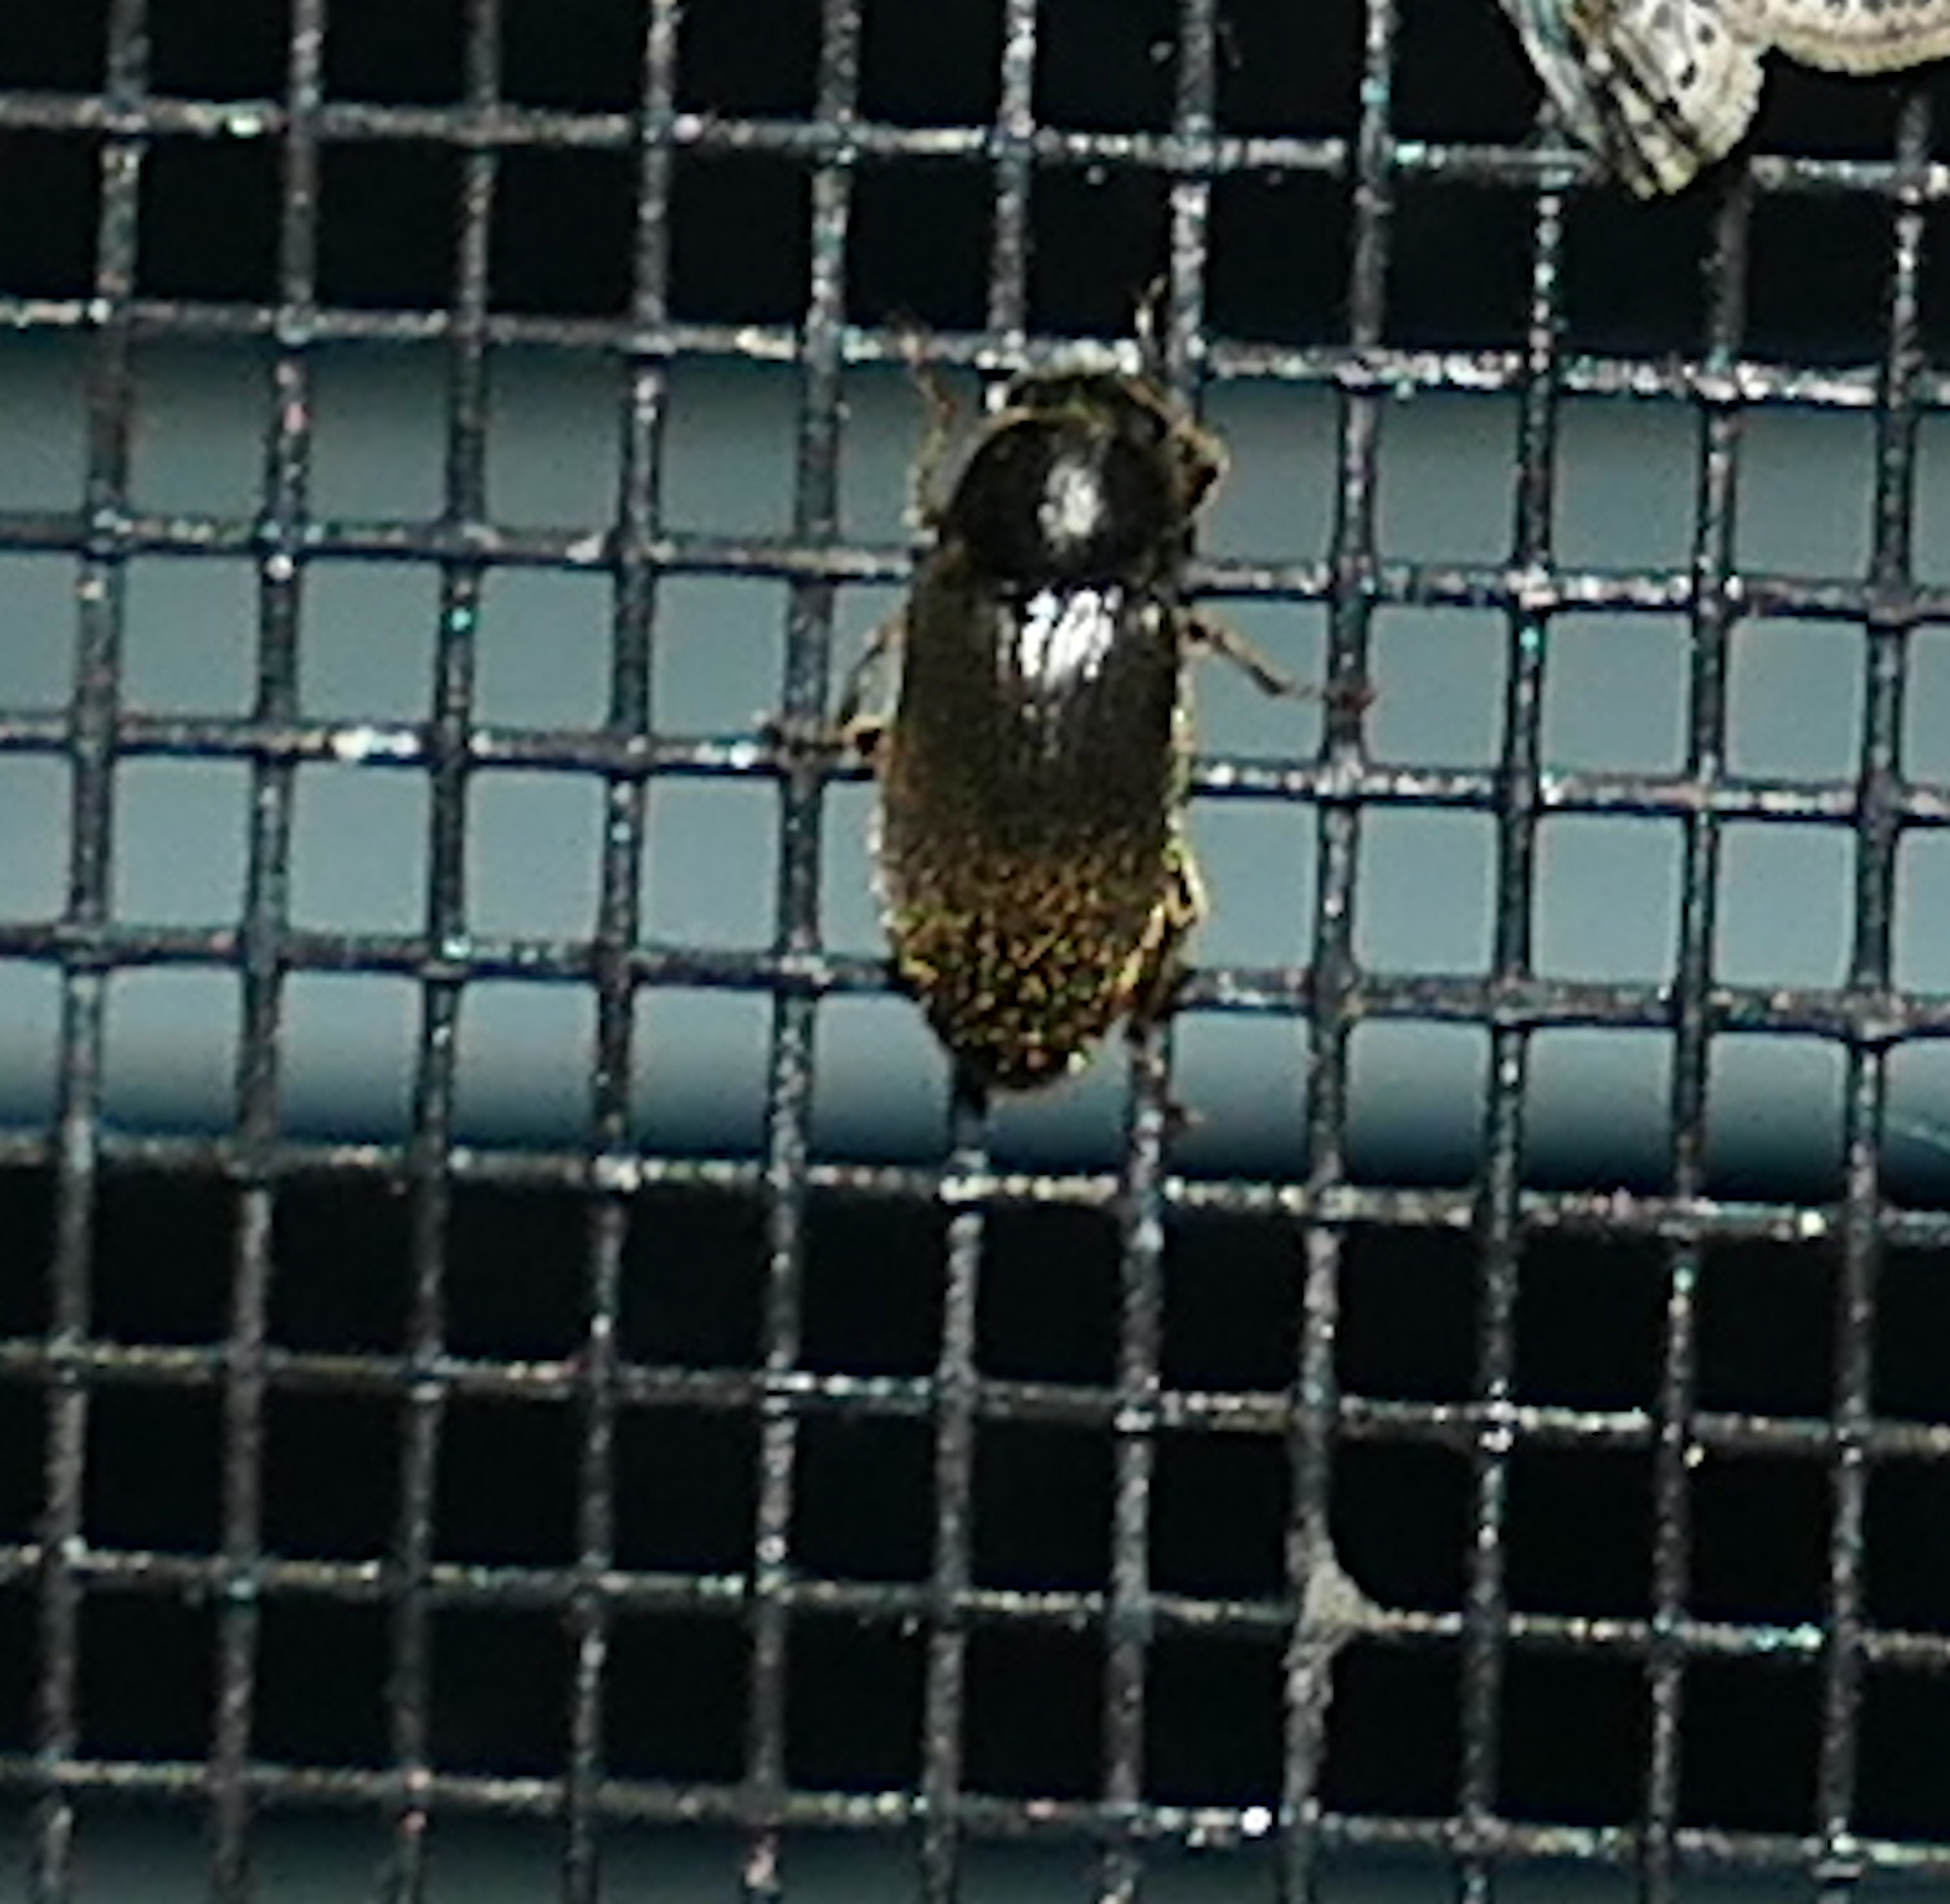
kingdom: Animalia
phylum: Arthropoda
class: Insecta
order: Coleoptera
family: Dryopidae
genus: Pelonomus
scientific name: Pelonomus obscurus
